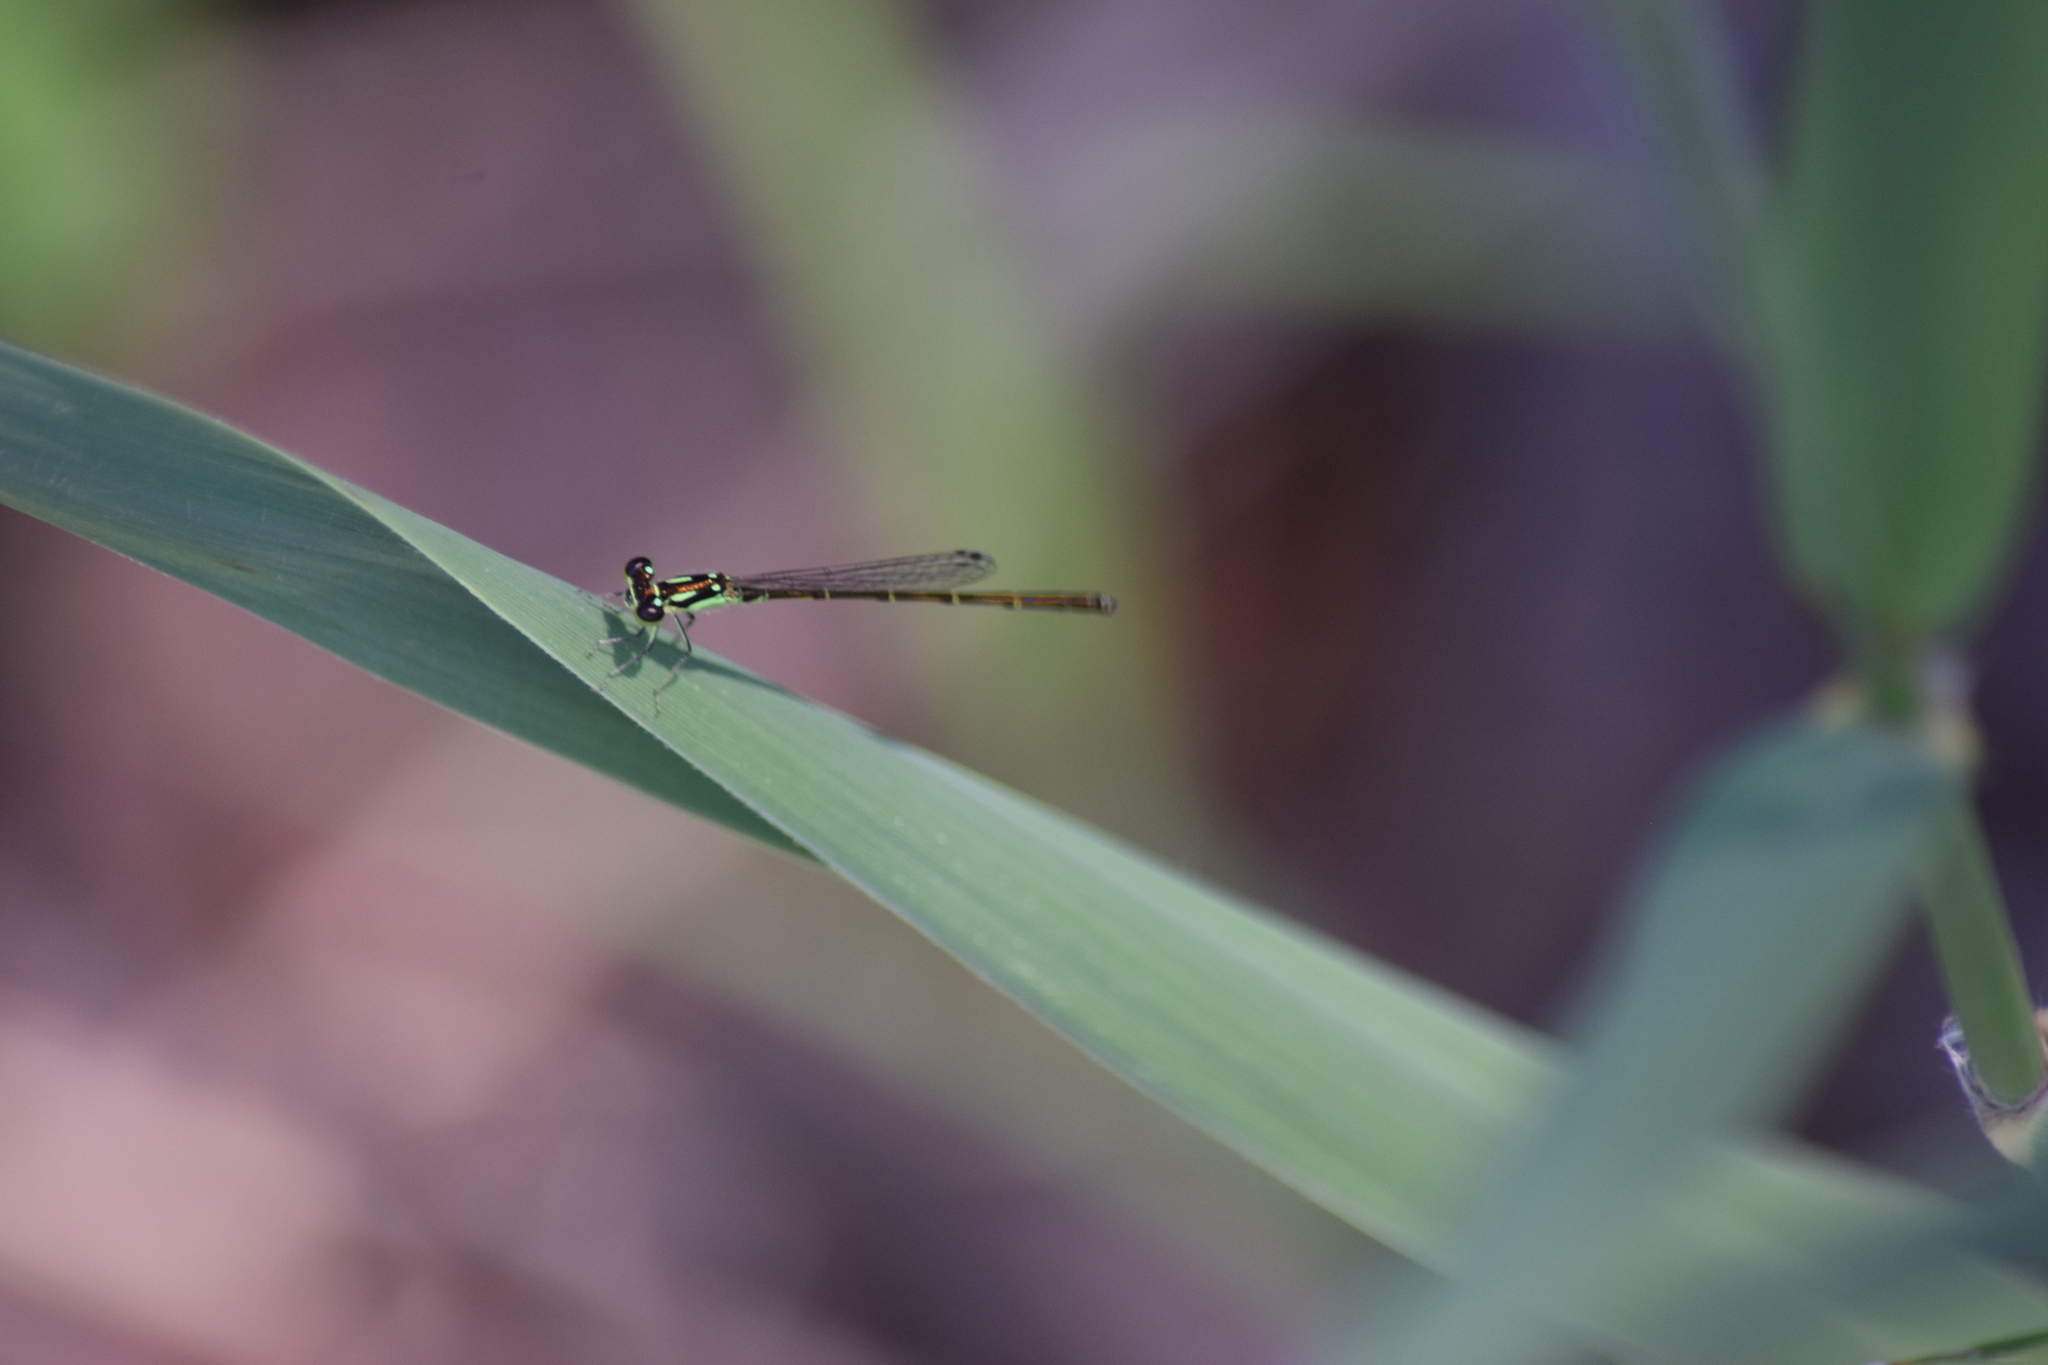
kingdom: Animalia
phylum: Arthropoda
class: Insecta
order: Odonata
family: Coenagrionidae
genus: Ischnura
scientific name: Ischnura posita
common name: Fragile forktail
